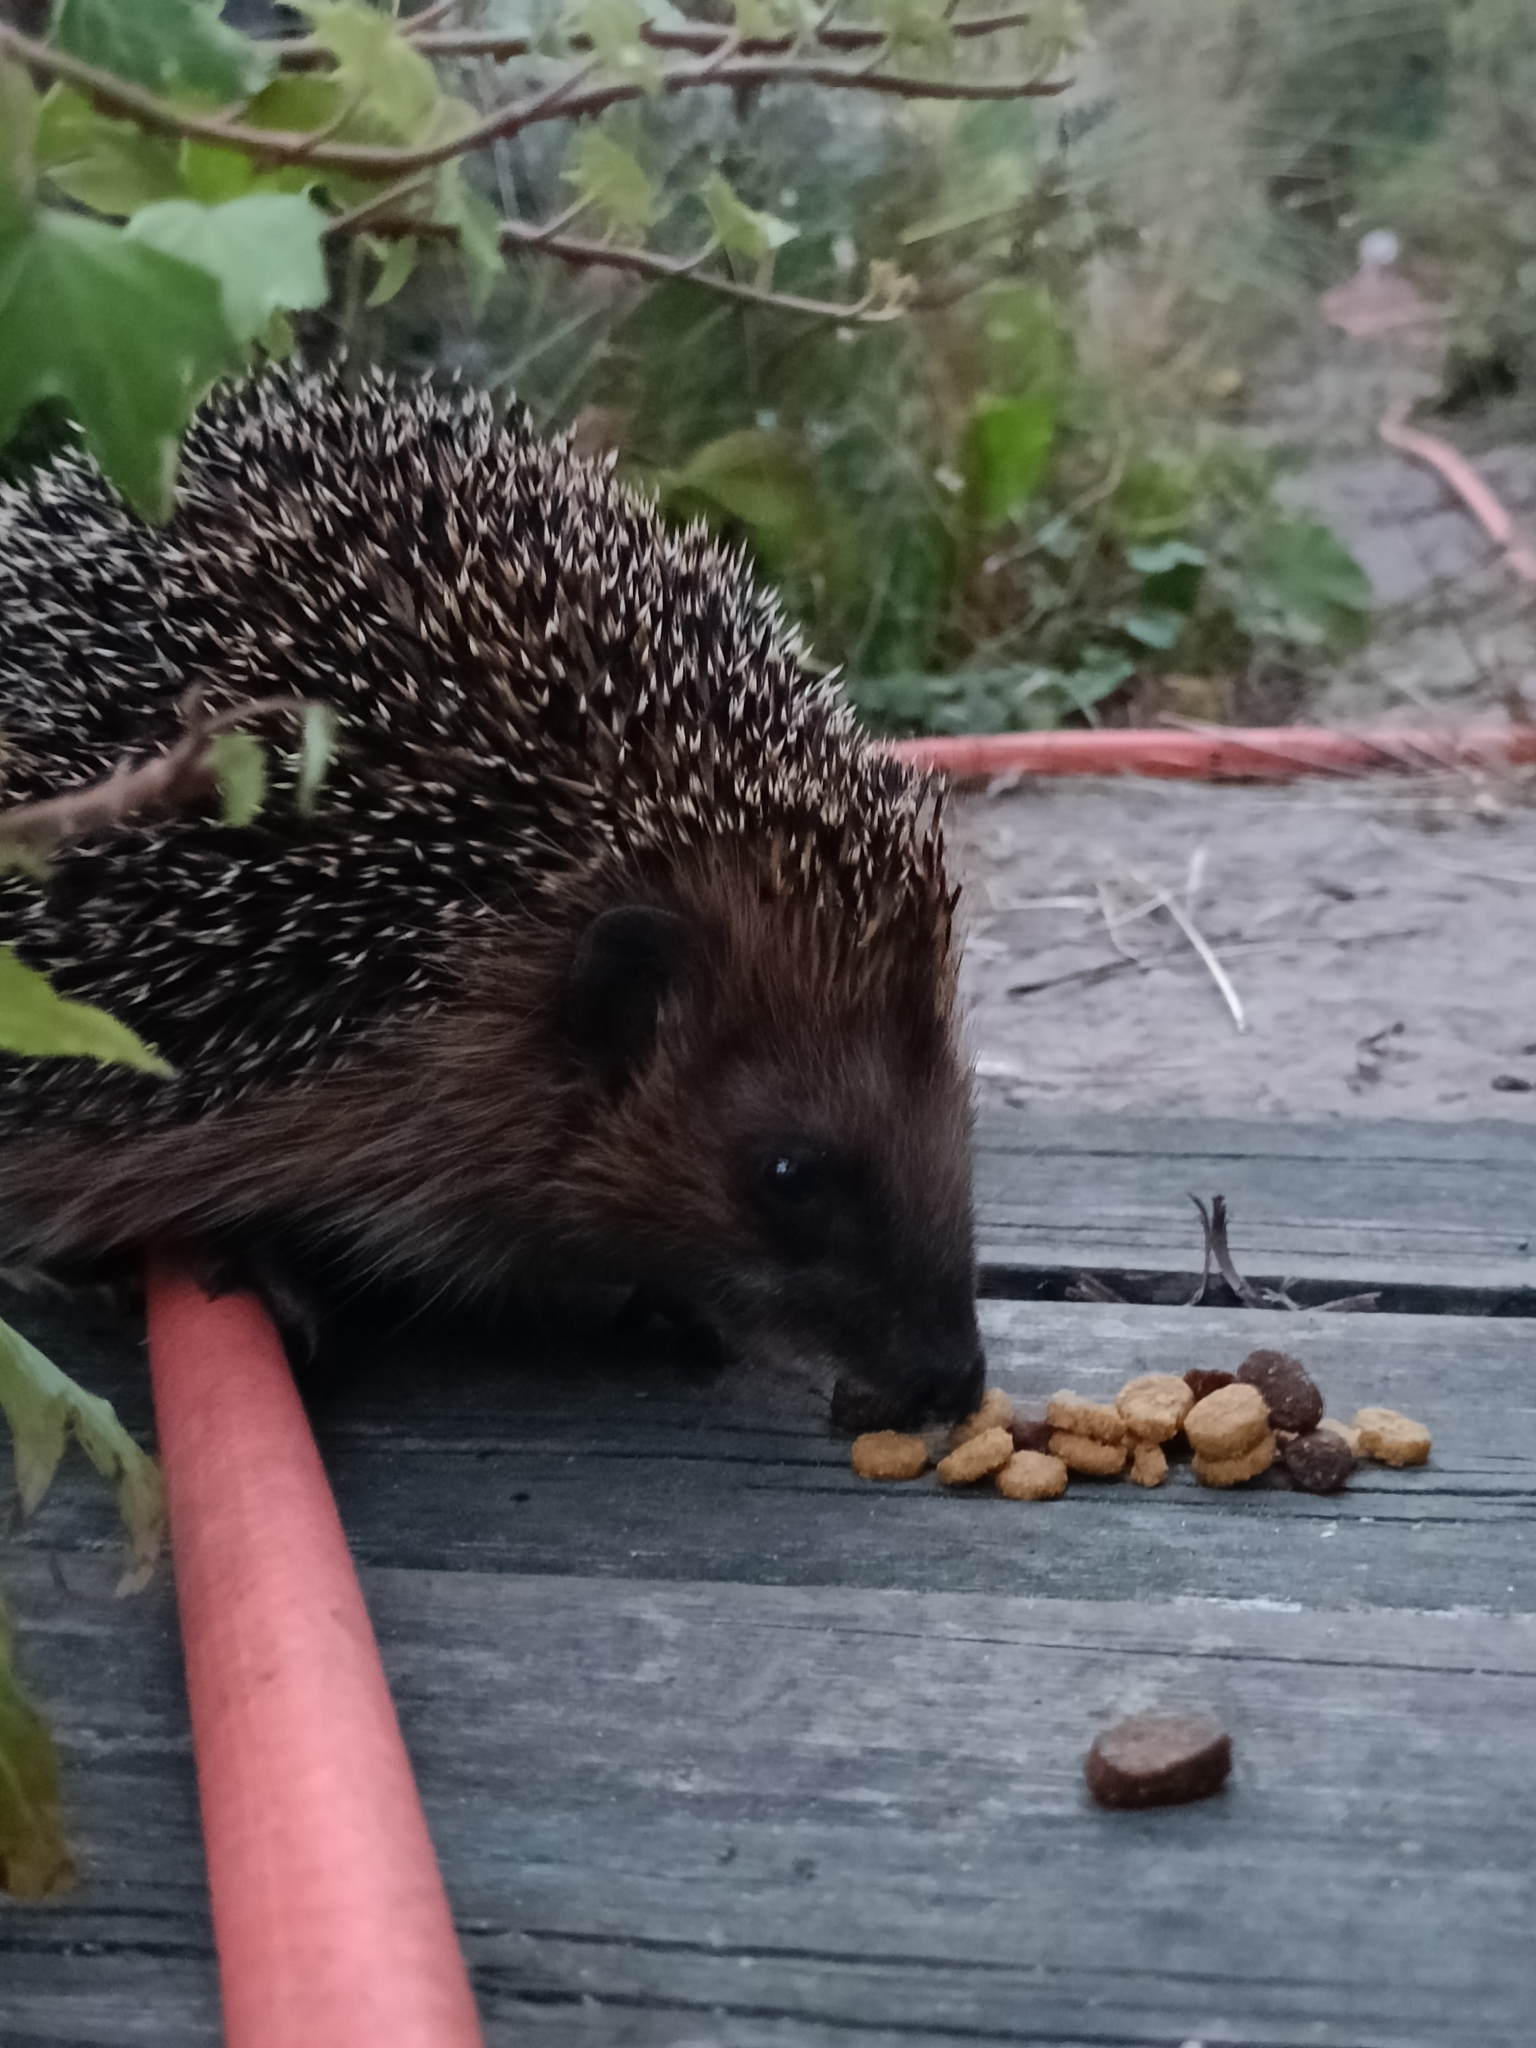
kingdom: Animalia
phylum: Chordata
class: Mammalia
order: Erinaceomorpha
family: Erinaceidae
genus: Erinaceus
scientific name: Erinaceus europaeus
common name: West european hedgehog
